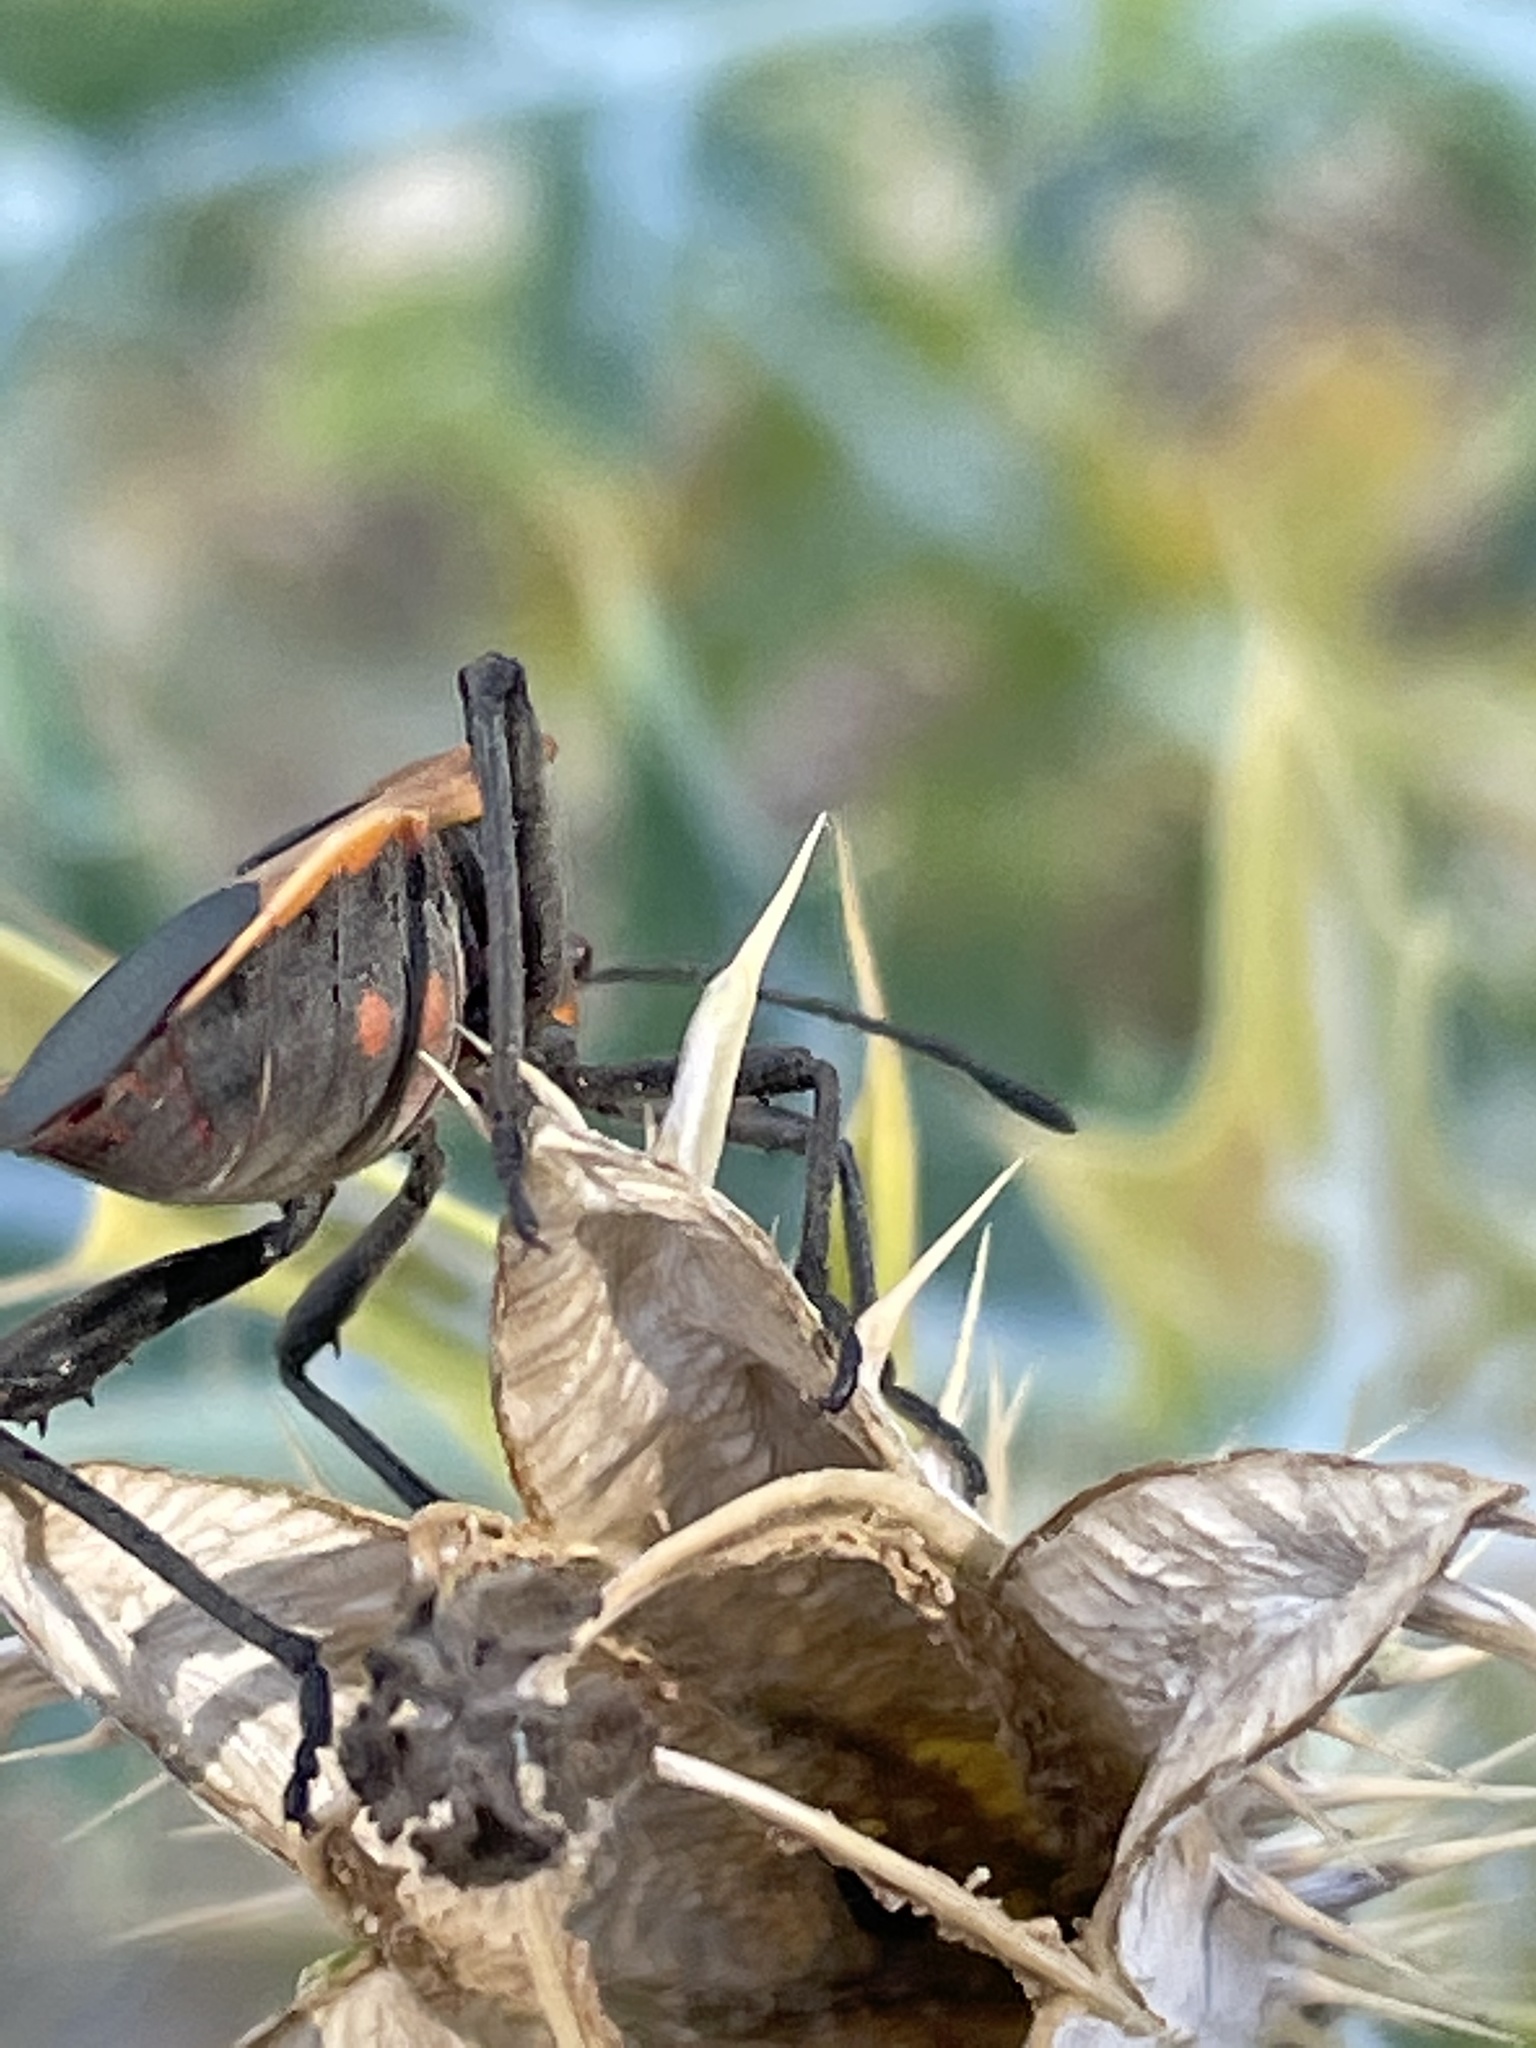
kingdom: Animalia
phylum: Arthropoda
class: Insecta
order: Hemiptera
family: Coreidae
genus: Sagotylus
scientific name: Sagotylus confluens
